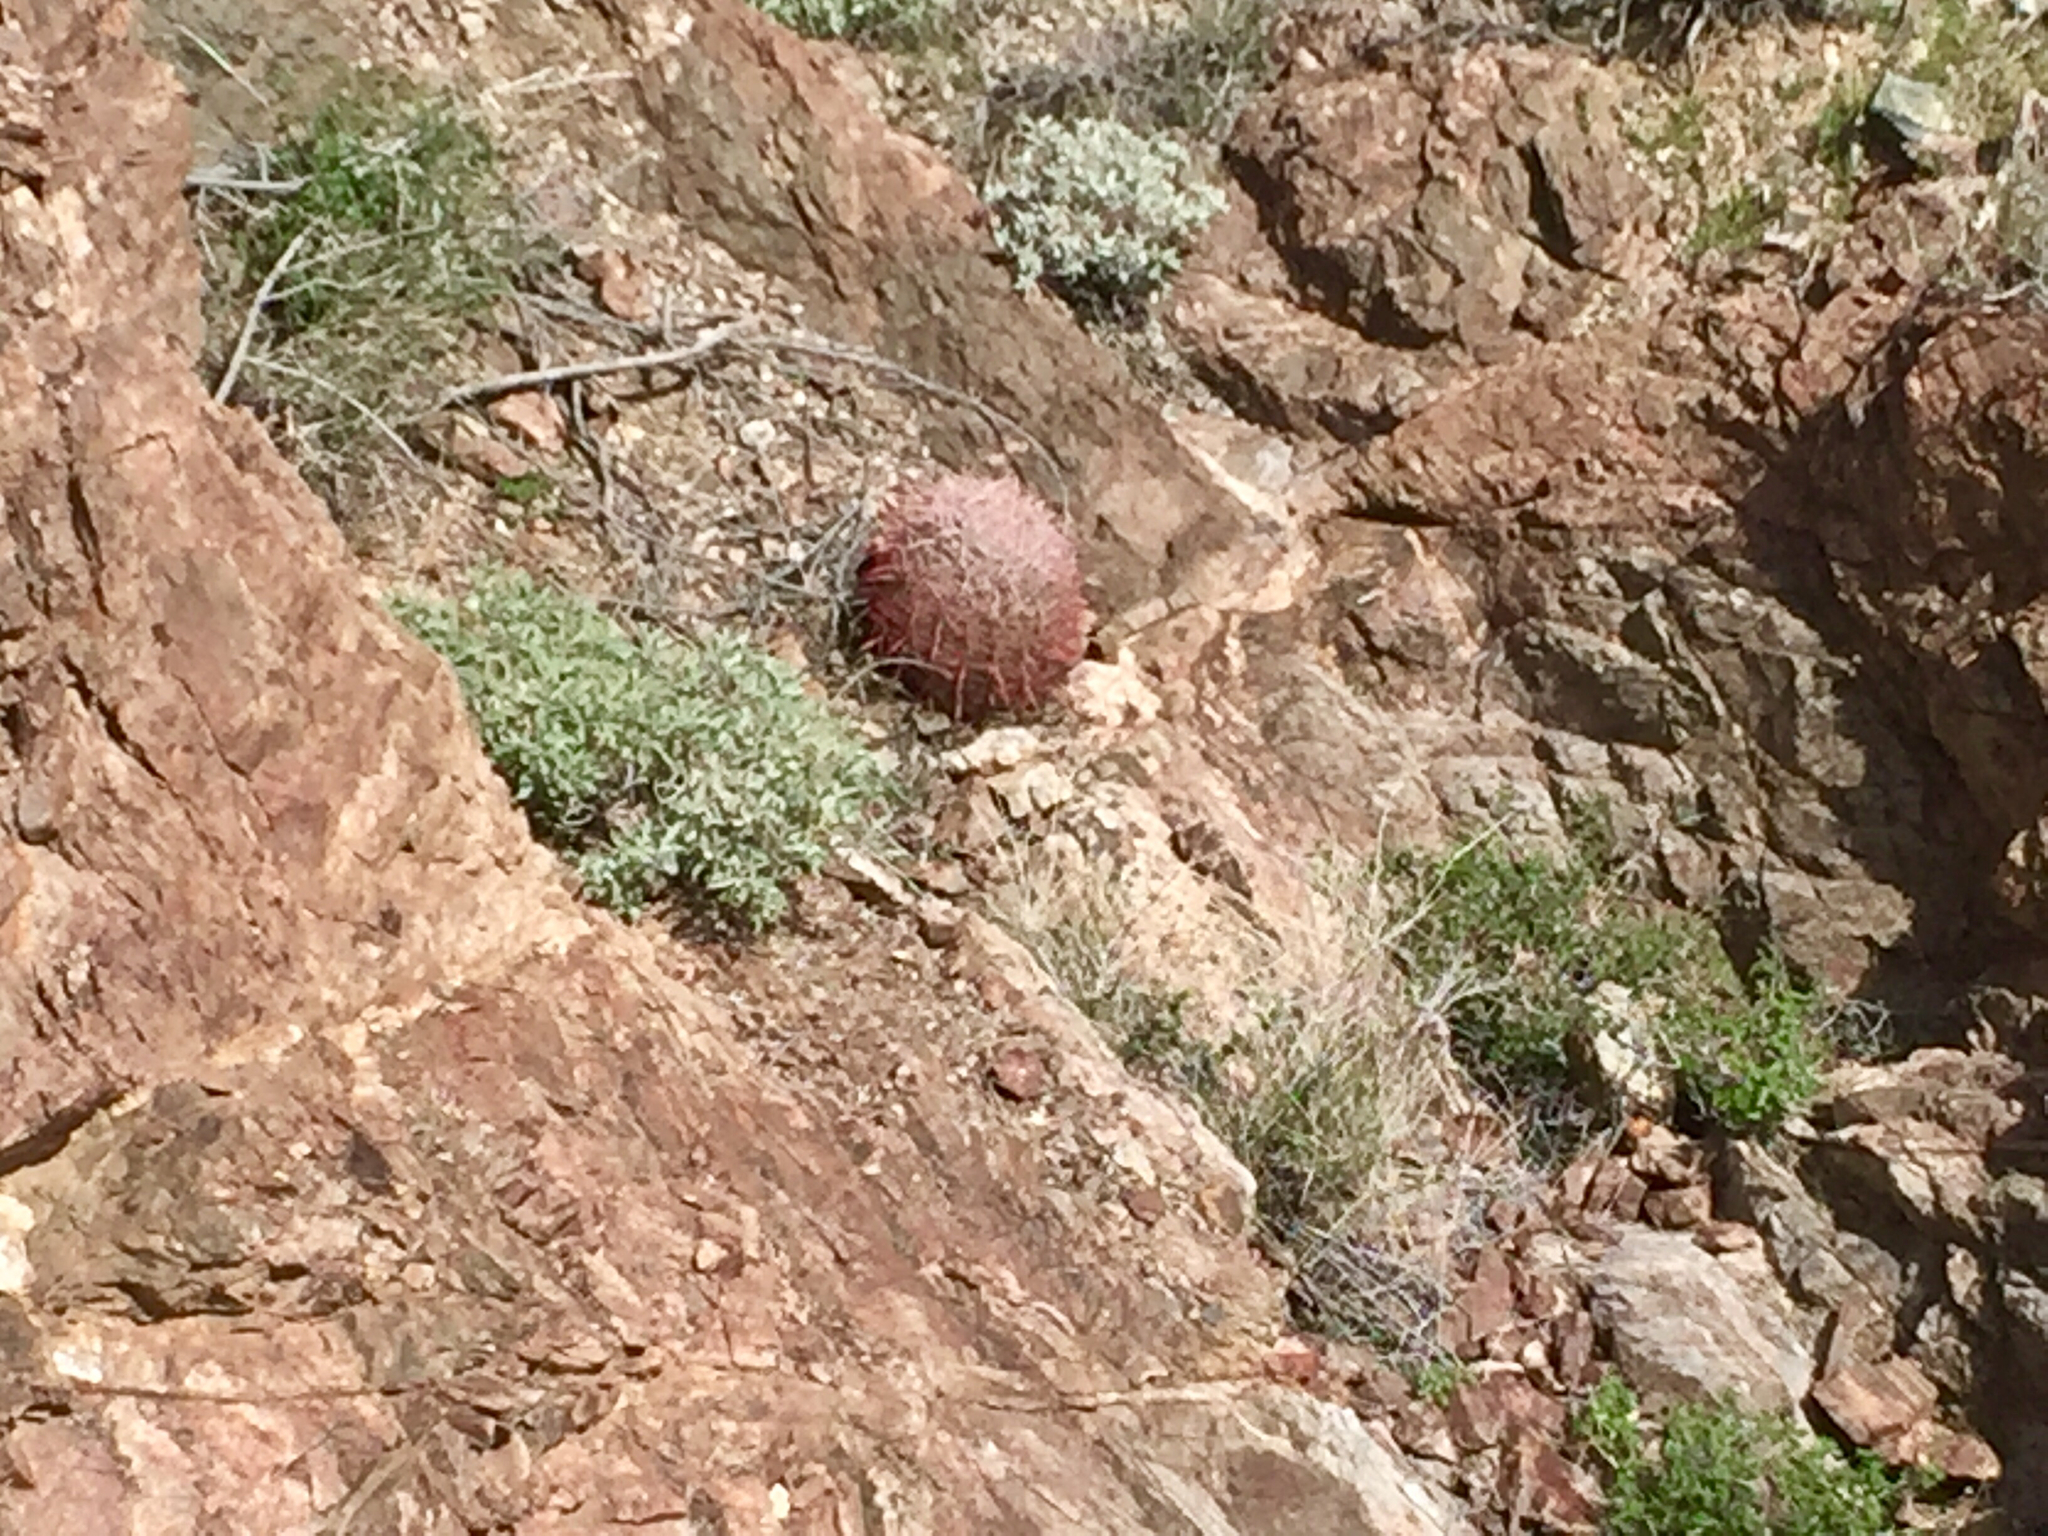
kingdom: Plantae
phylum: Tracheophyta
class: Magnoliopsida
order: Caryophyllales
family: Cactaceae
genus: Ferocactus
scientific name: Ferocactus cylindraceus
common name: California barrel cactus
